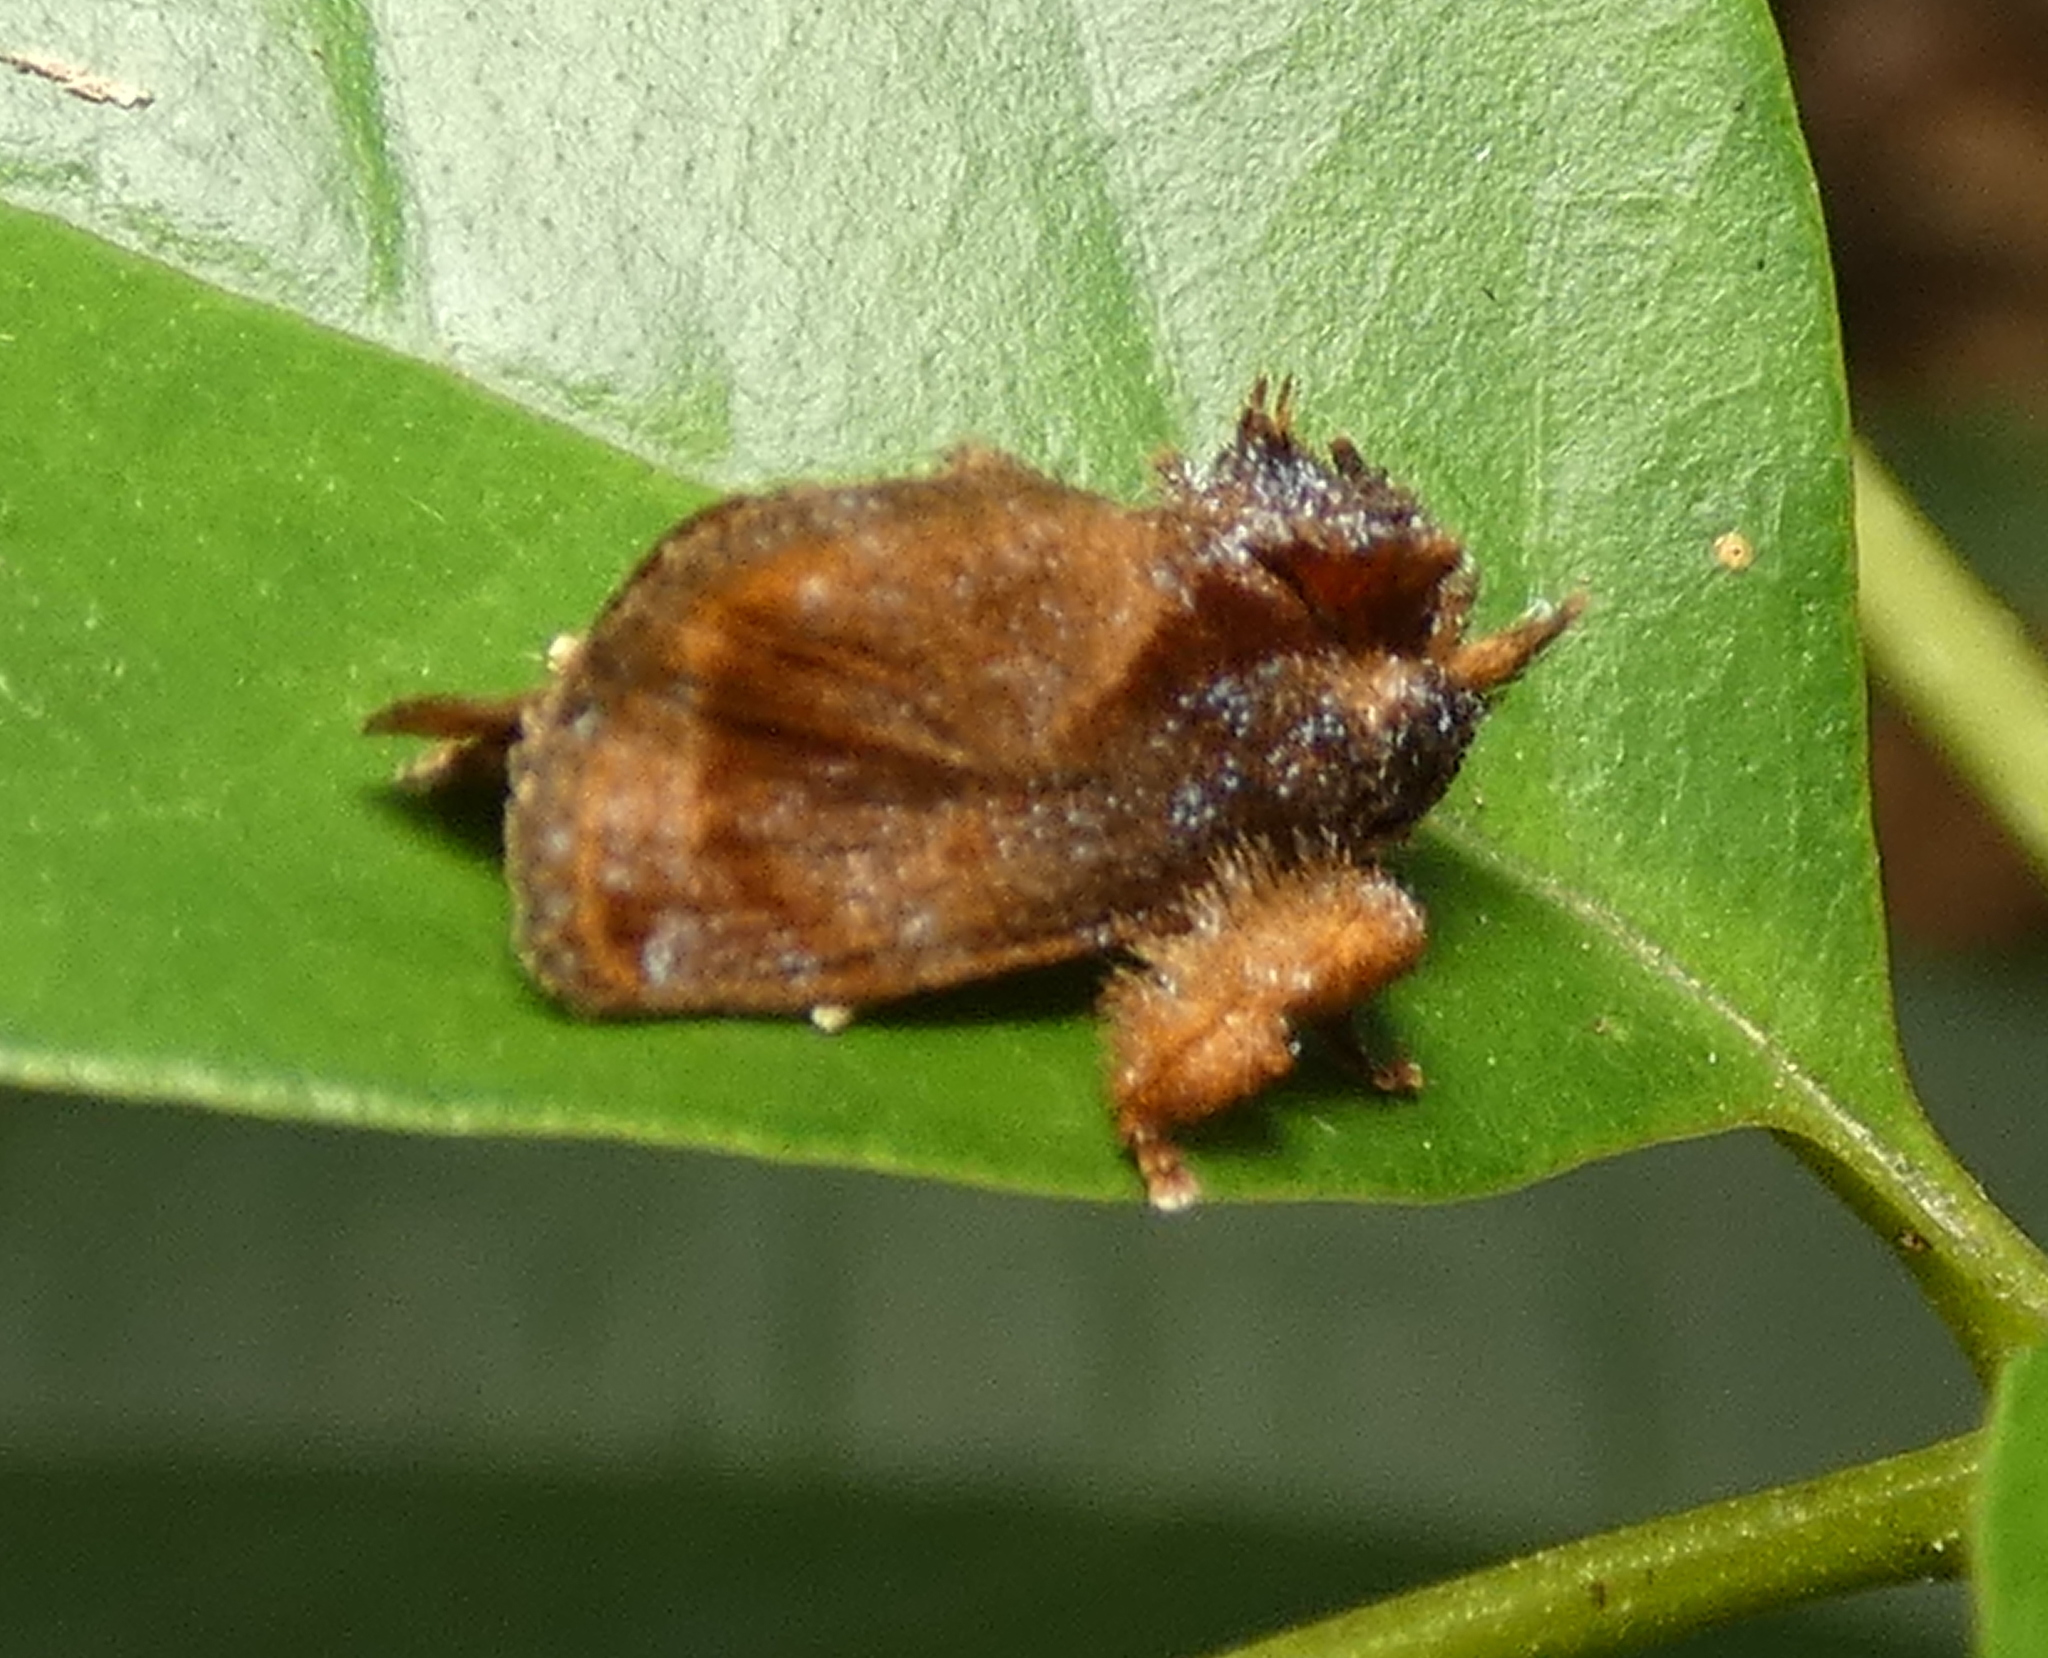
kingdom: Animalia
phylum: Arthropoda
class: Insecta
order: Lepidoptera
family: Limacodidae
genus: Euphobetron
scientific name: Euphobetron natadoides
